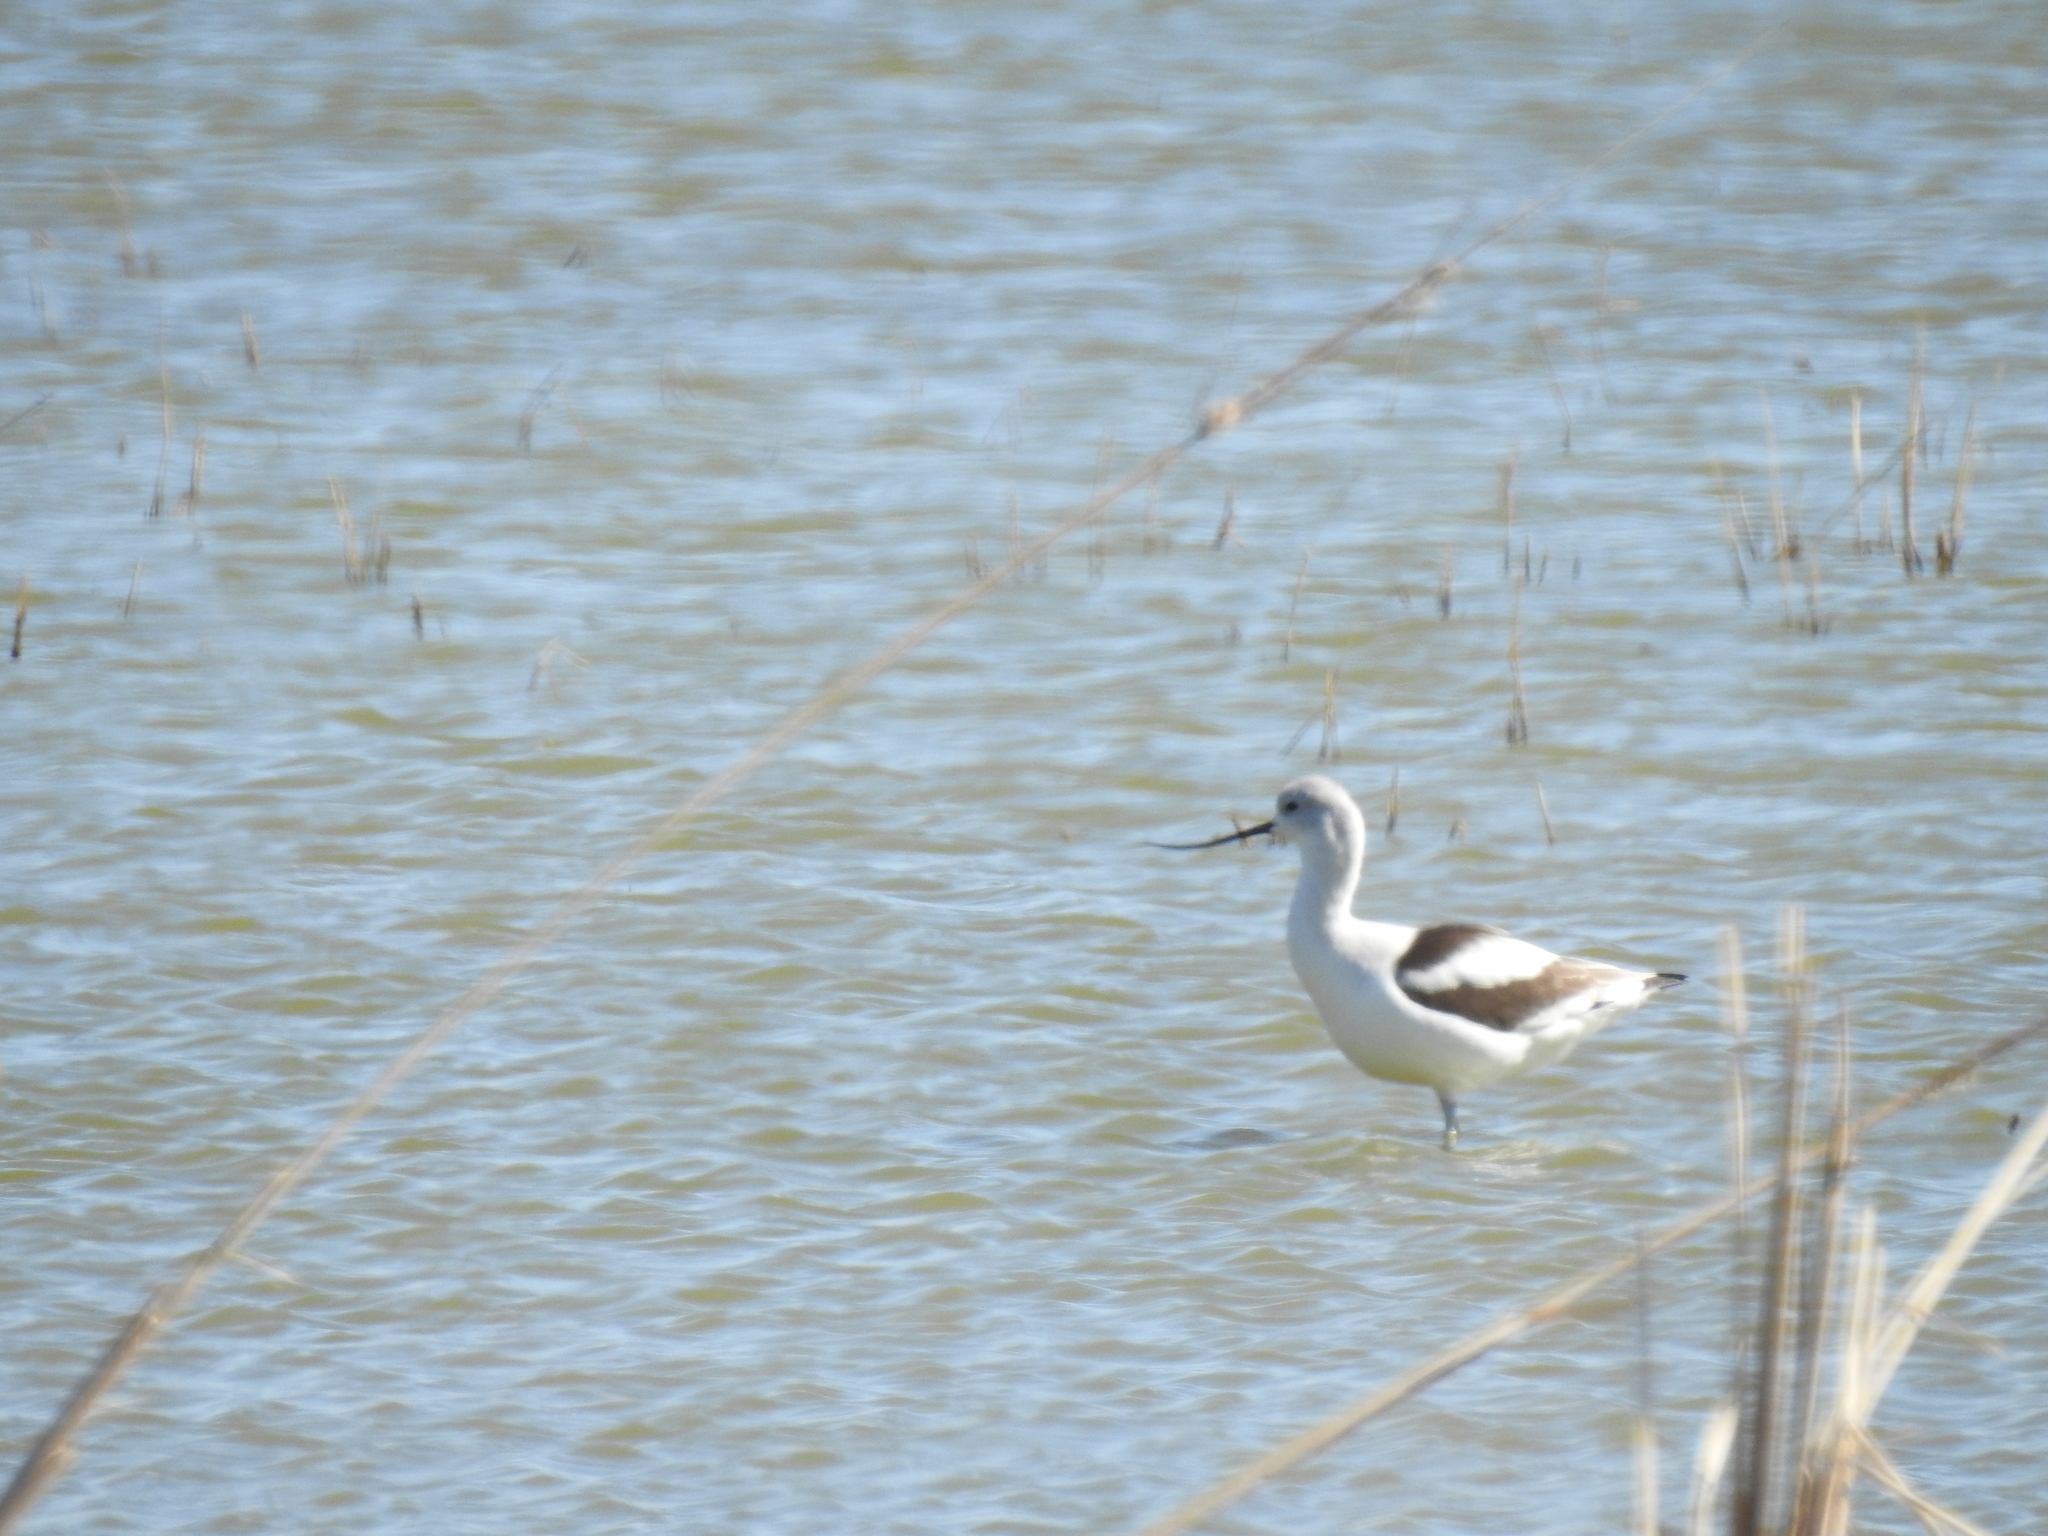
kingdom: Animalia
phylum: Chordata
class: Aves
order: Charadriiformes
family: Recurvirostridae
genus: Recurvirostra
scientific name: Recurvirostra americana
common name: American avocet
